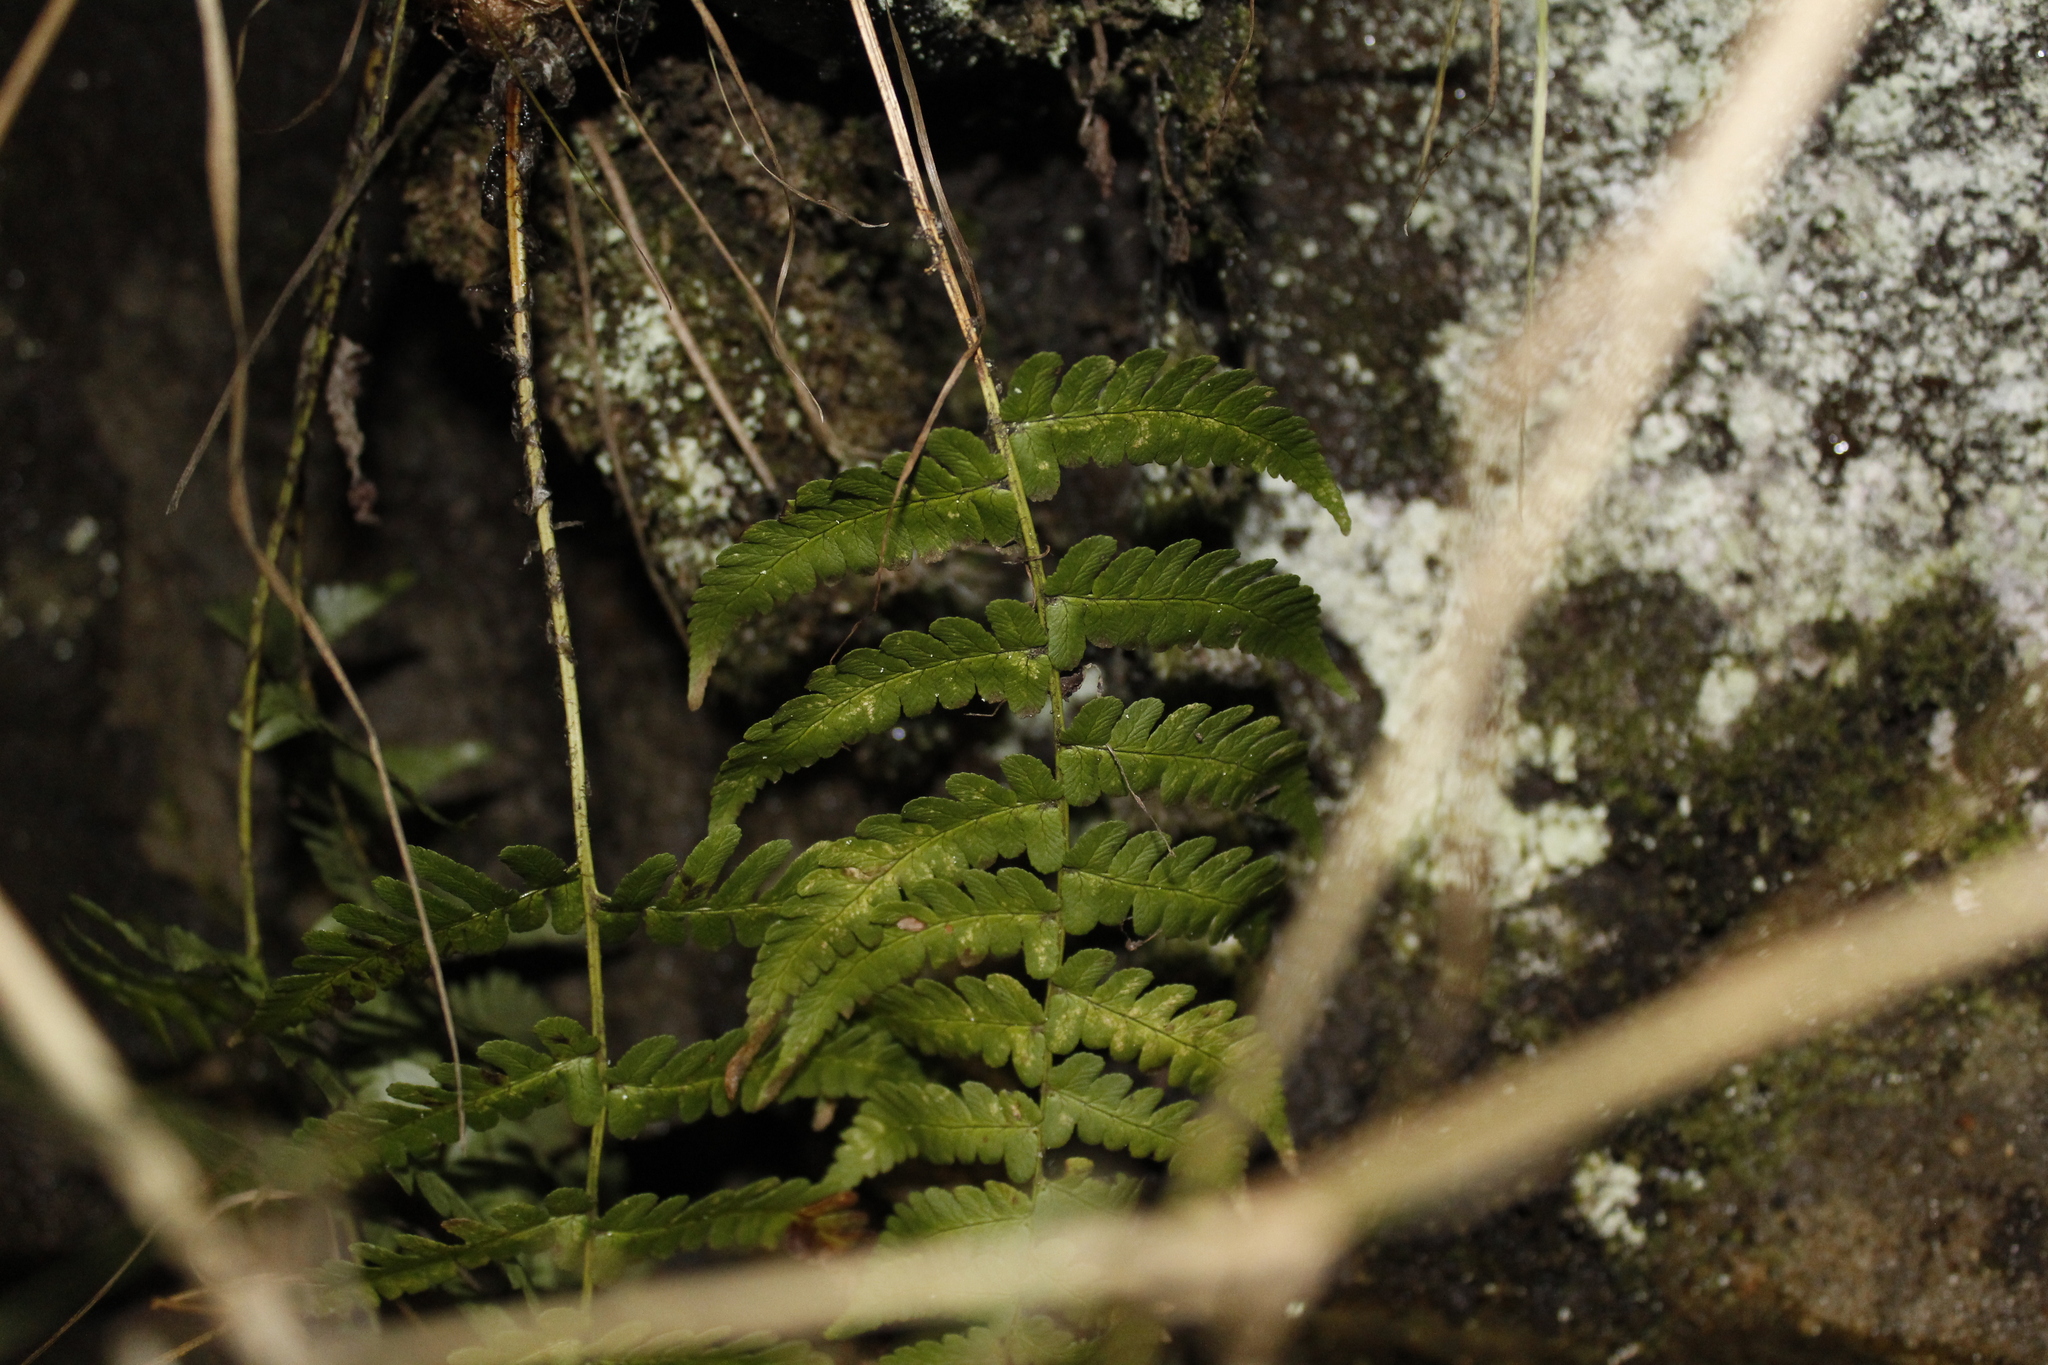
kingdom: Plantae
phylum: Tracheophyta
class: Polypodiopsida
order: Polypodiales
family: Dryopteridaceae
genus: Dryopteris
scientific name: Dryopteris marginalis
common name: Marginal wood fern
